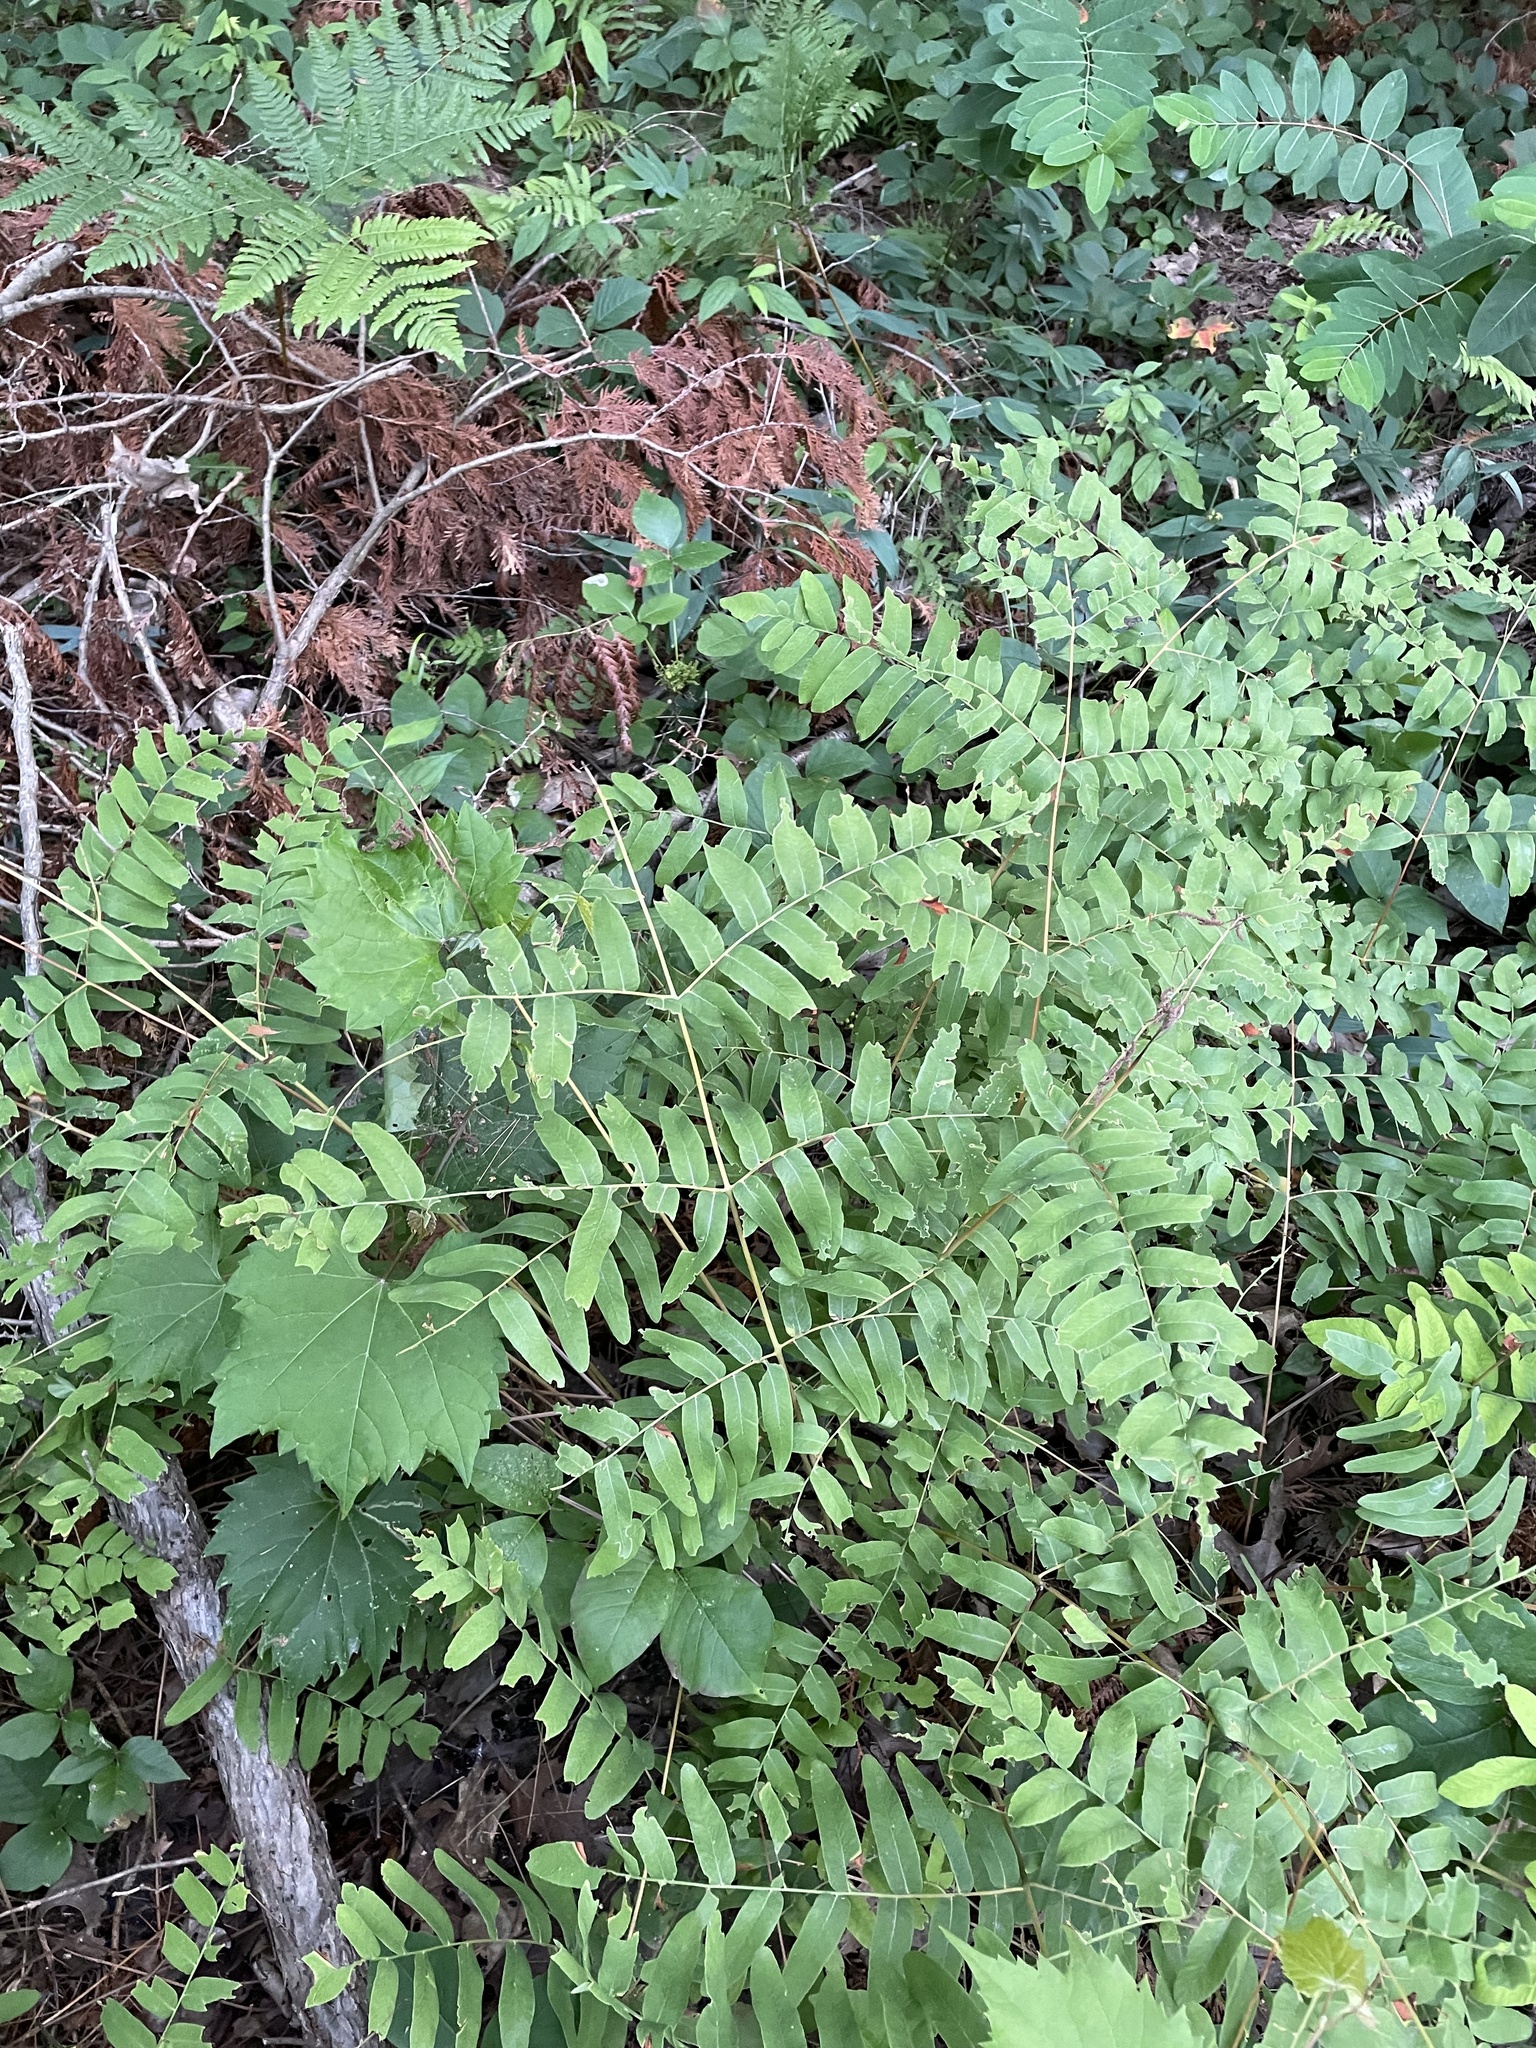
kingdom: Plantae
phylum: Tracheophyta
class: Polypodiopsida
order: Osmundales
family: Osmundaceae
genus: Osmunda
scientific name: Osmunda spectabilis
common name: American royal fern
